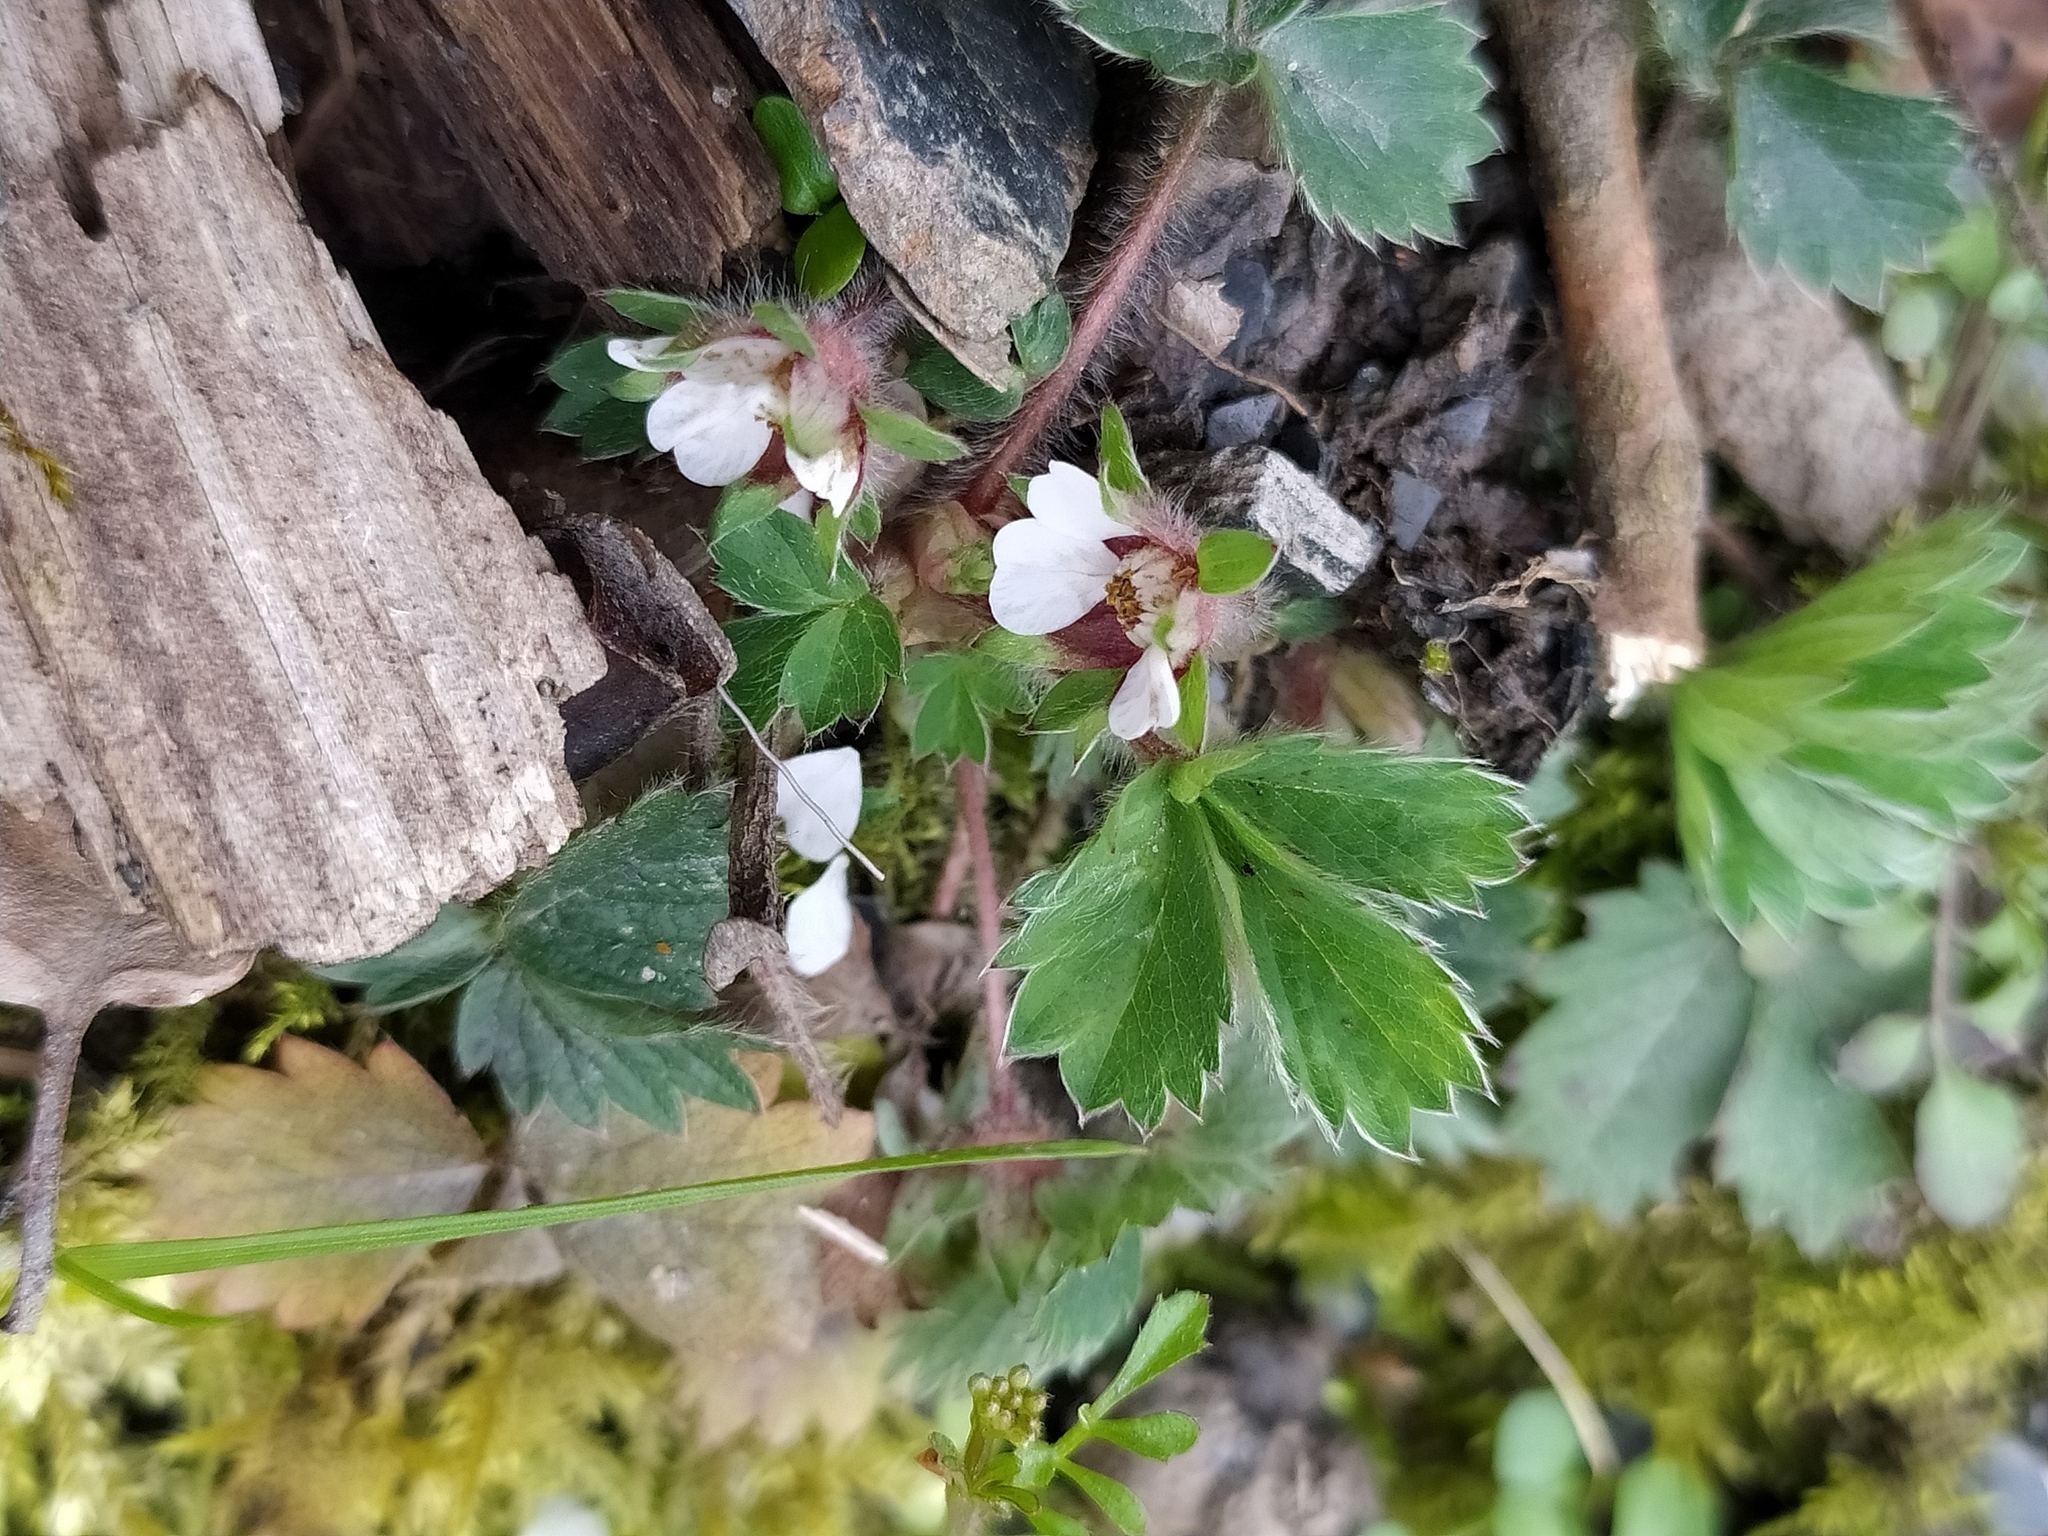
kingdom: Plantae
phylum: Tracheophyta
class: Magnoliopsida
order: Rosales
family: Rosaceae
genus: Potentilla
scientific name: Potentilla micrantha
